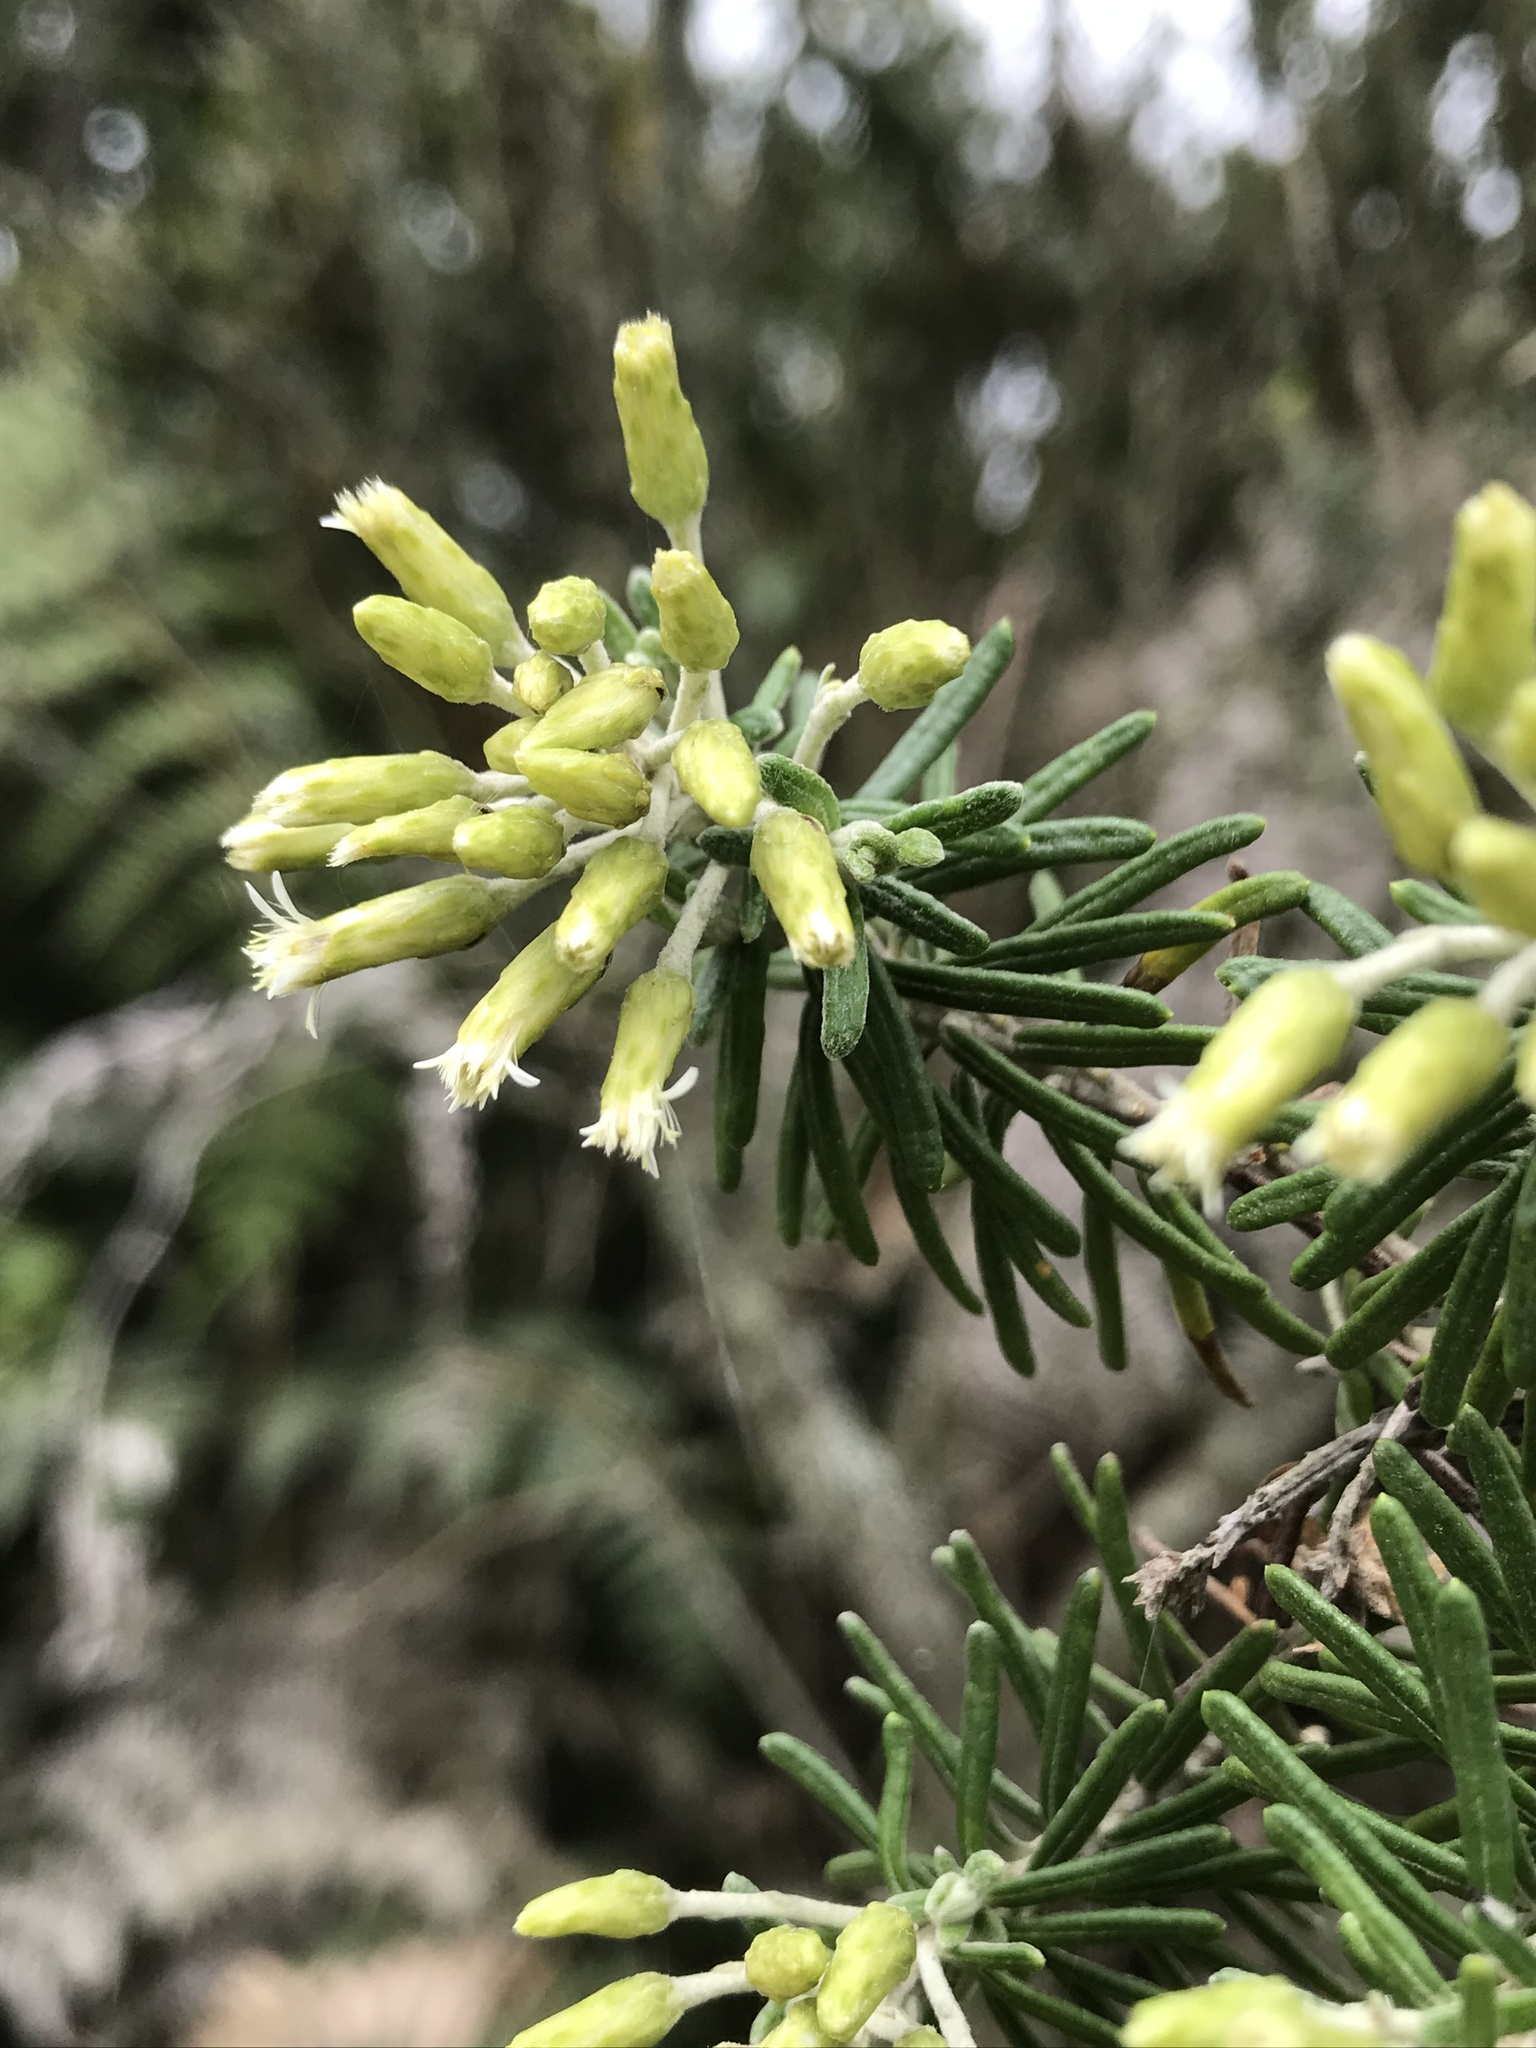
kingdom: Plantae
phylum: Tracheophyta
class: Magnoliopsida
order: Asterales
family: Asteraceae
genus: Linochilus
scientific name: Linochilus rosmarinifolius
